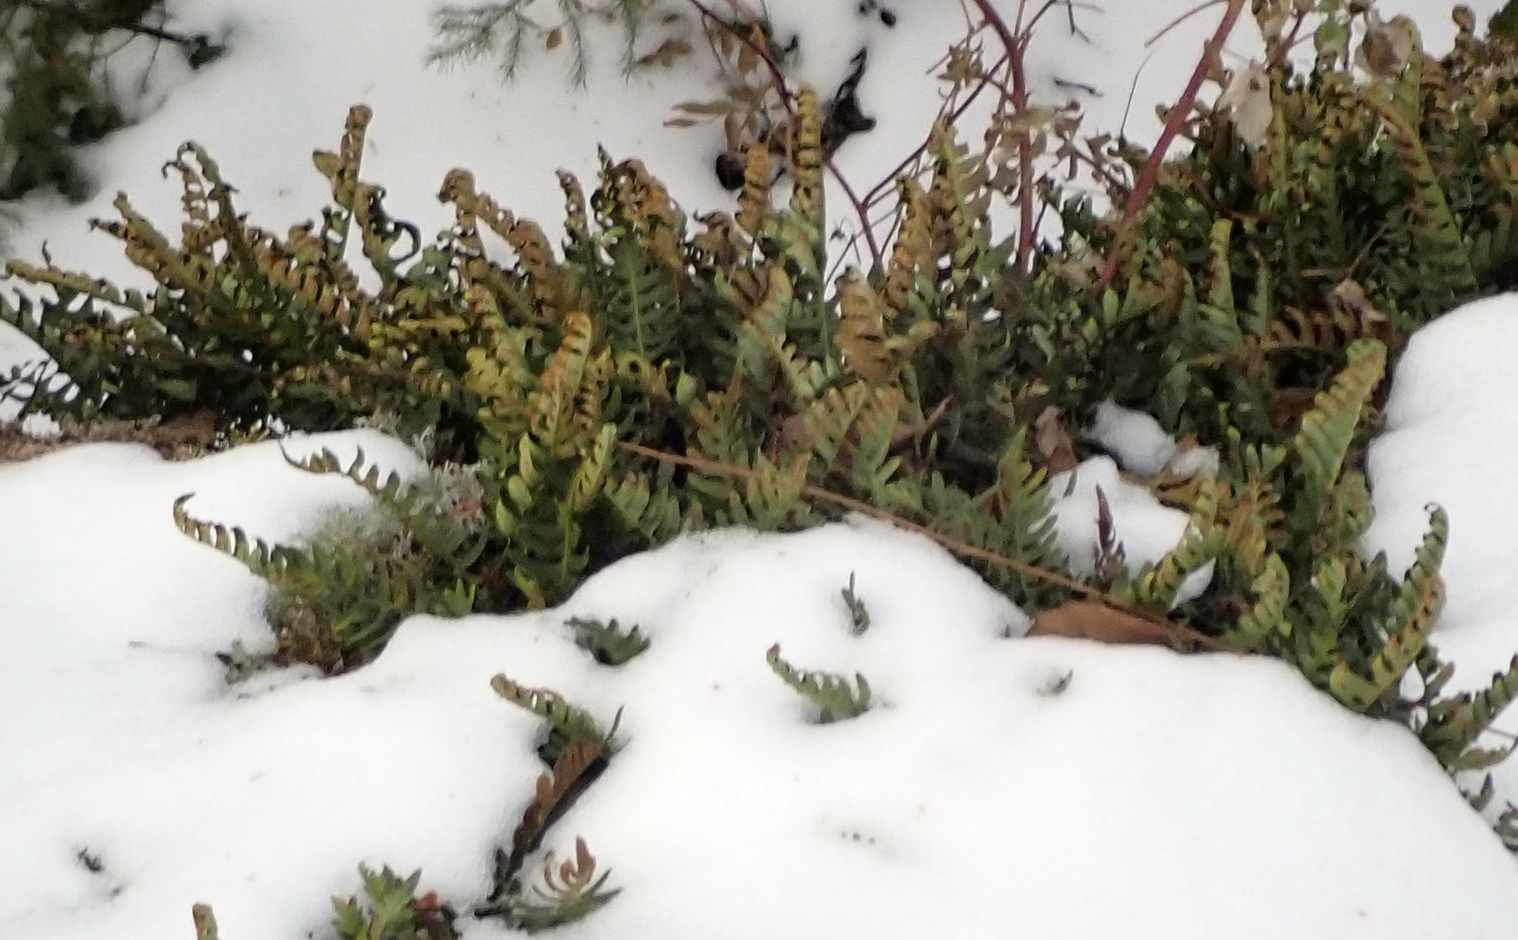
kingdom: Plantae
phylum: Tracheophyta
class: Polypodiopsida
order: Polypodiales
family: Polypodiaceae
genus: Polypodium
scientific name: Polypodium virginianum
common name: American wall fern
